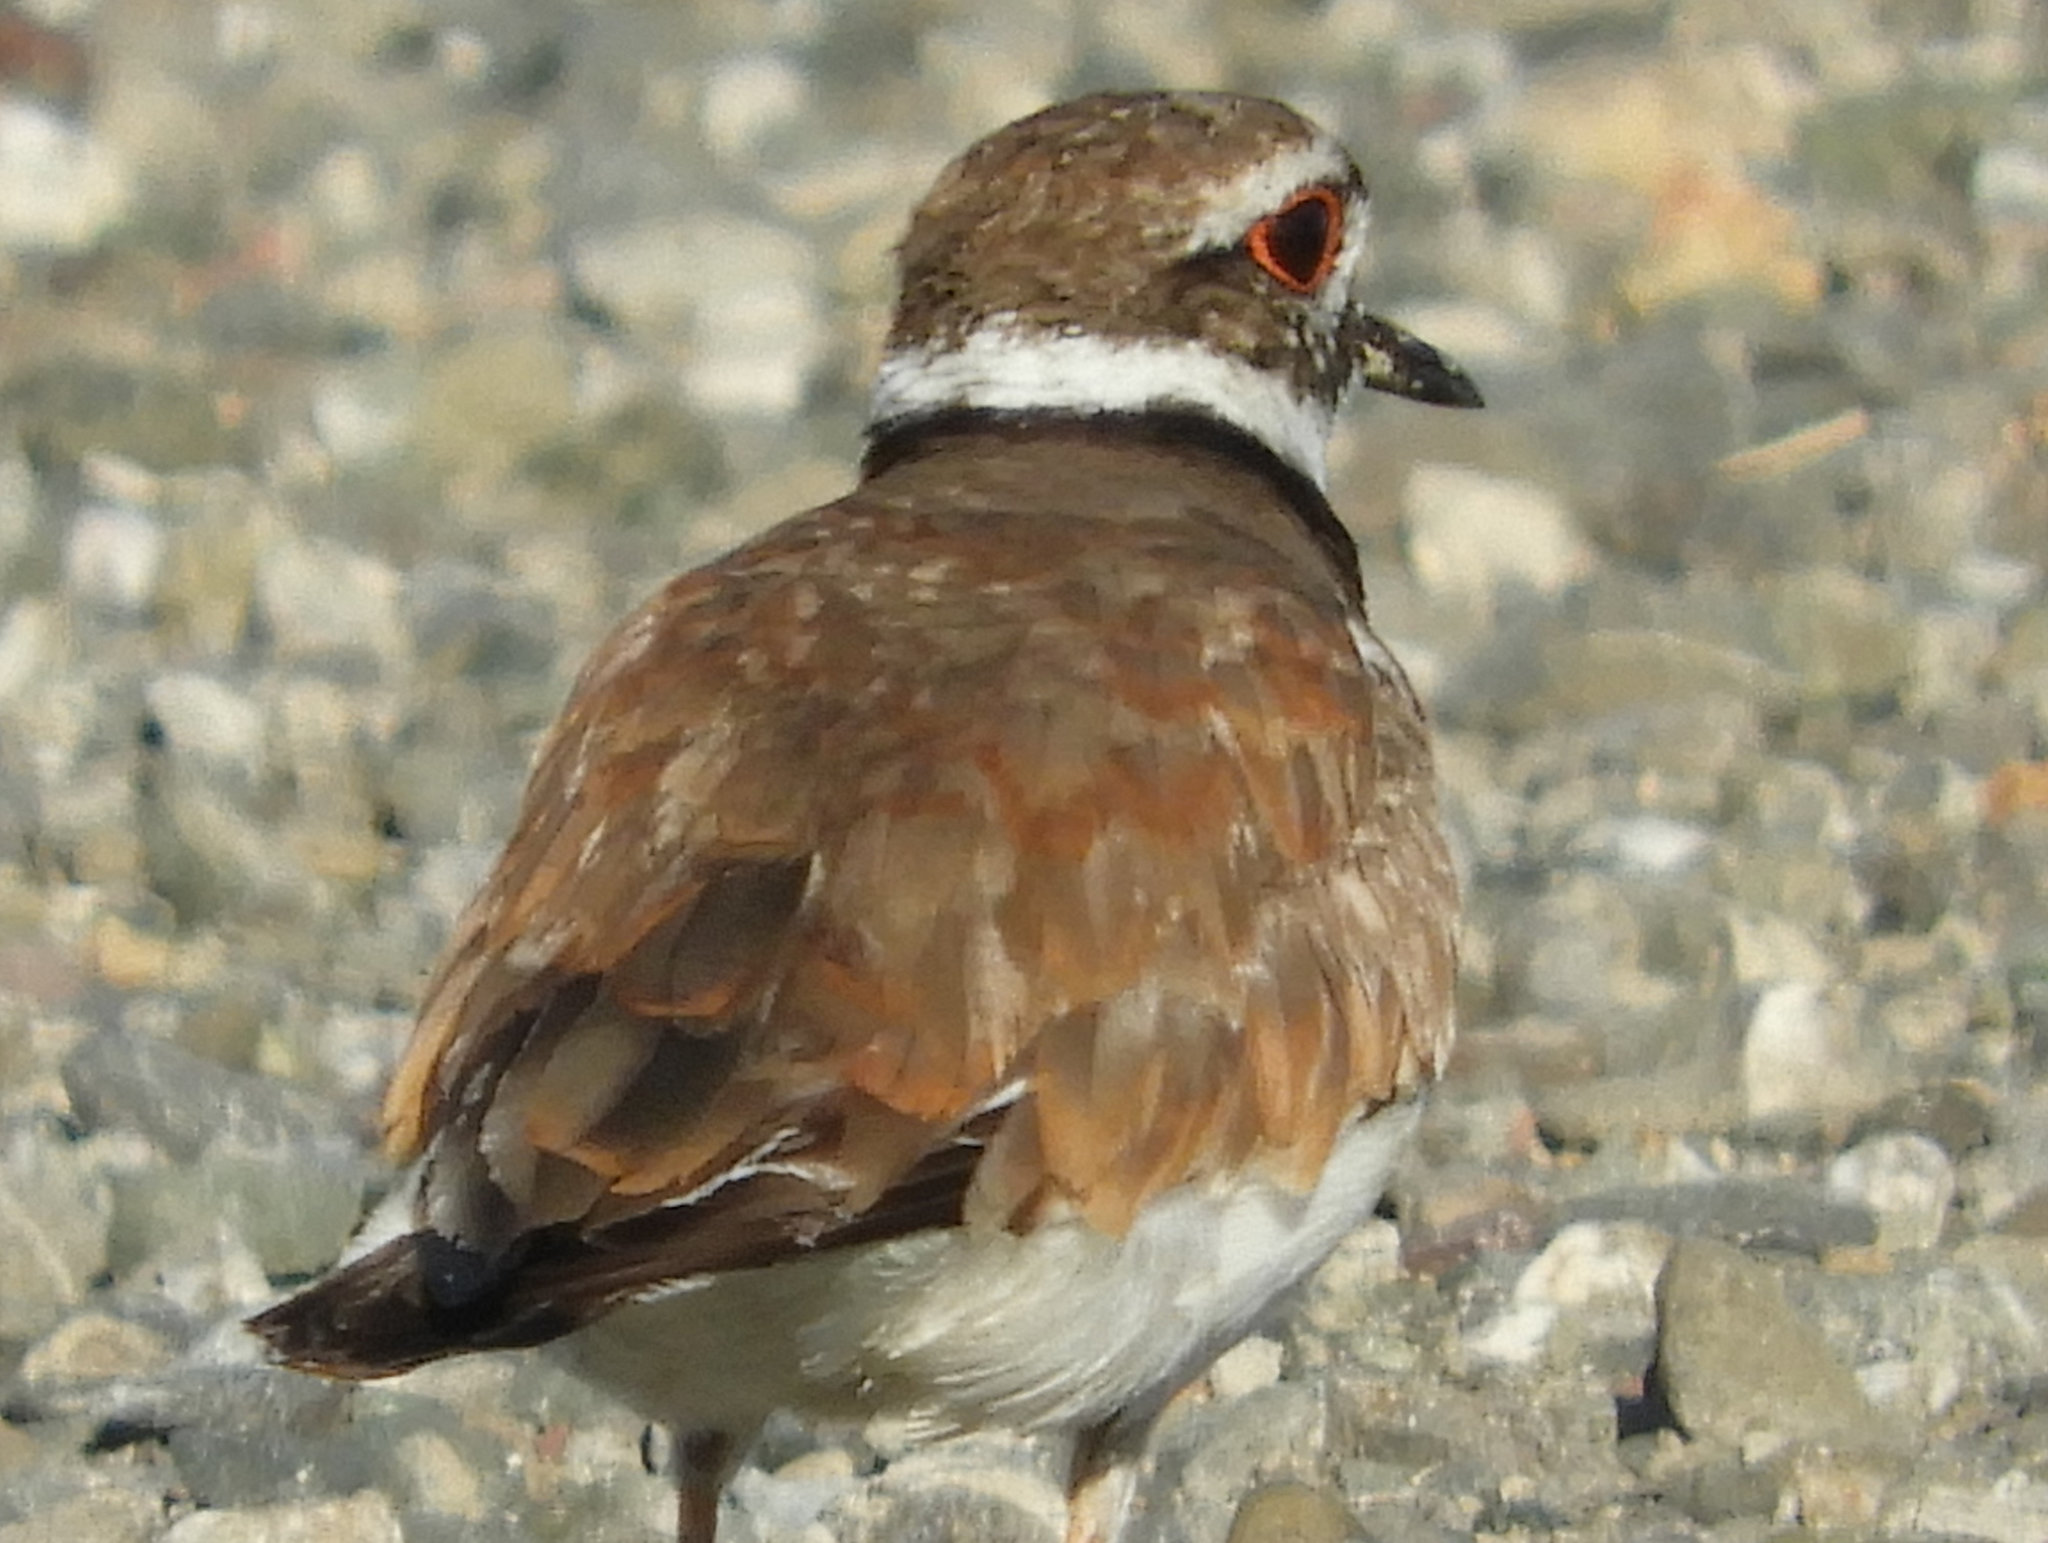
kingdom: Animalia
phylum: Chordata
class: Aves
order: Charadriiformes
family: Charadriidae
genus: Charadrius
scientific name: Charadrius vociferus
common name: Killdeer
